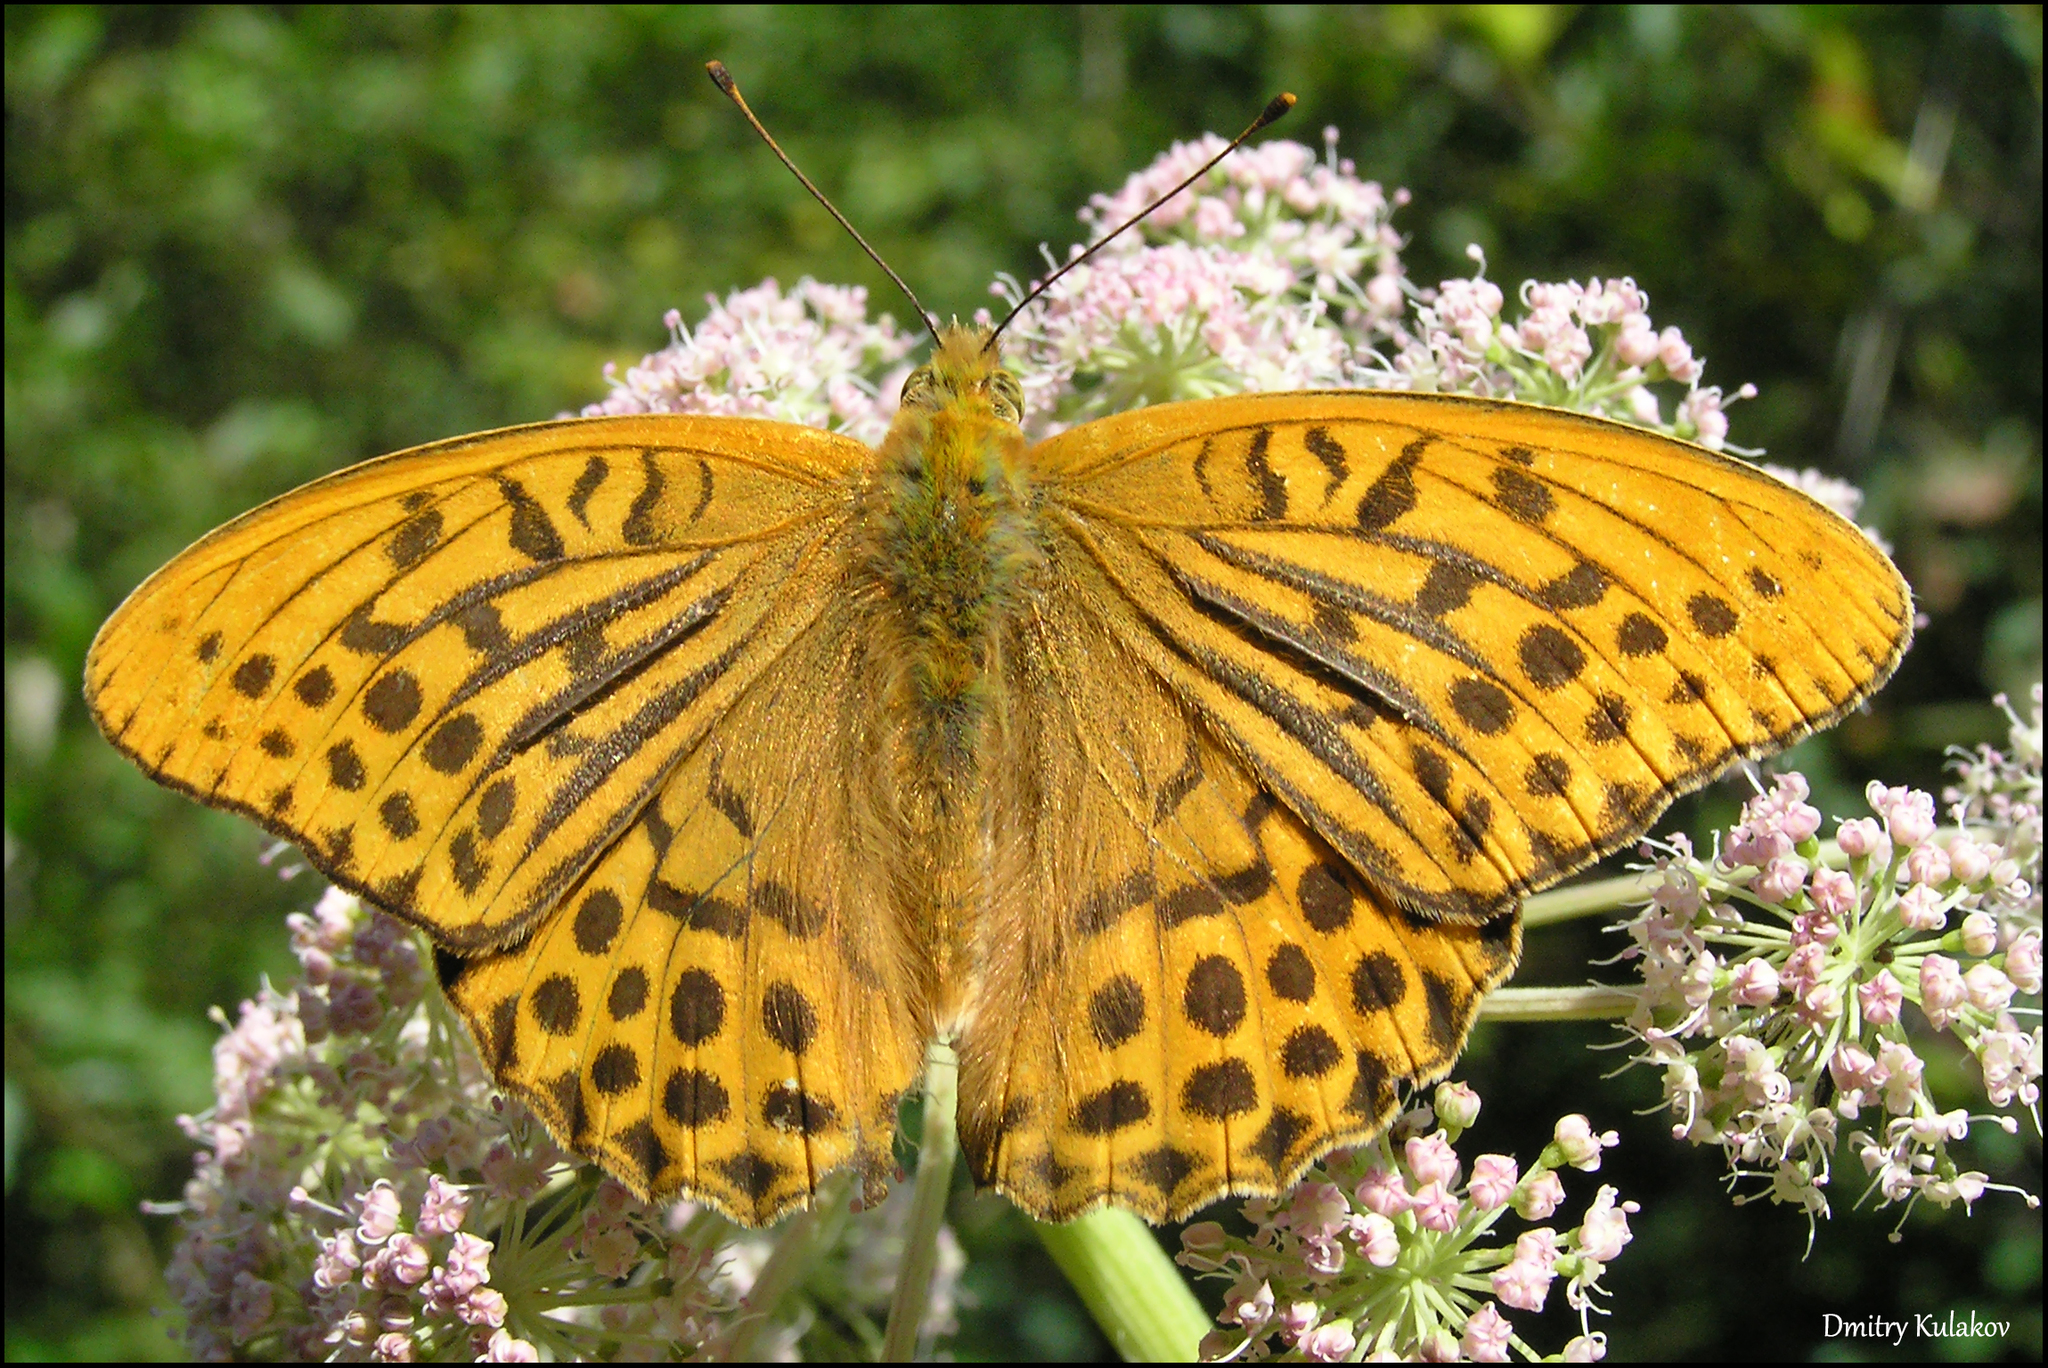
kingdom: Animalia
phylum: Arthropoda
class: Insecta
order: Lepidoptera
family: Nymphalidae
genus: Argynnis
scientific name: Argynnis paphia
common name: Silver-washed fritillary
